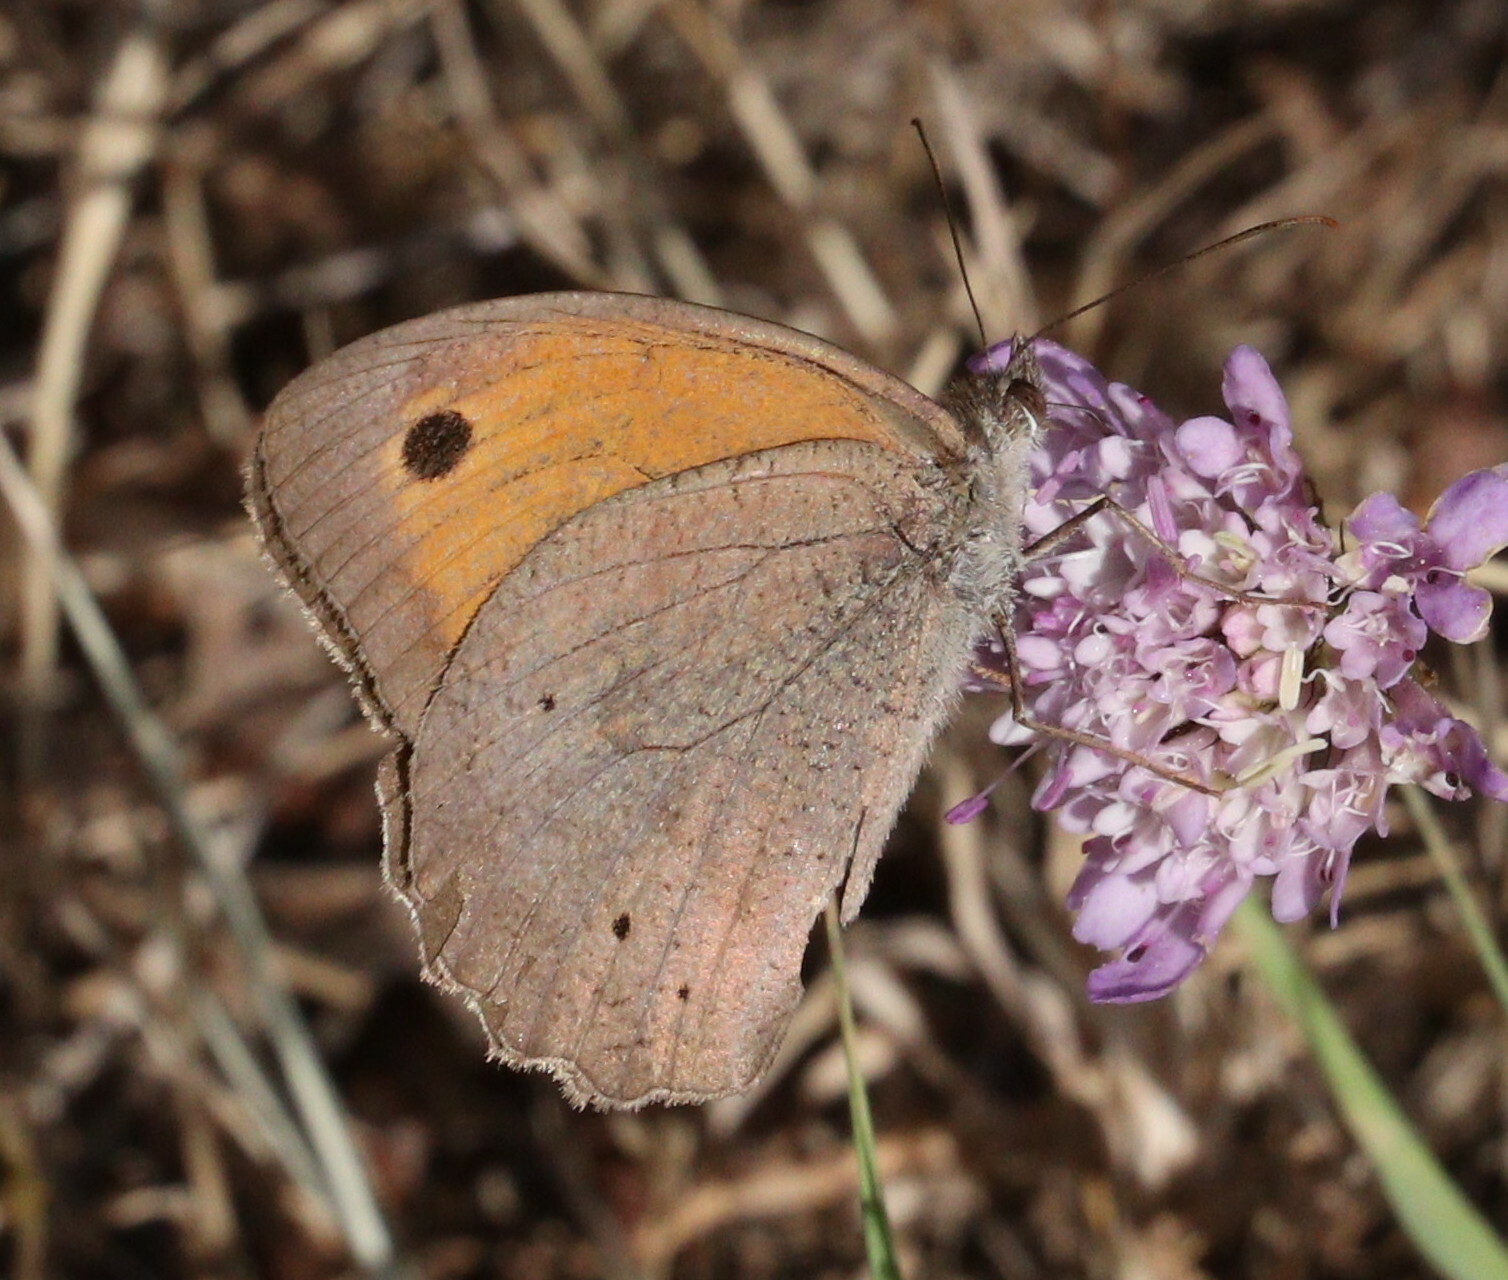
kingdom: Animalia
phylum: Arthropoda
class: Insecta
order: Lepidoptera
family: Nymphalidae
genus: Maniola
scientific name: Maniola jurtina
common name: Meadow brown
